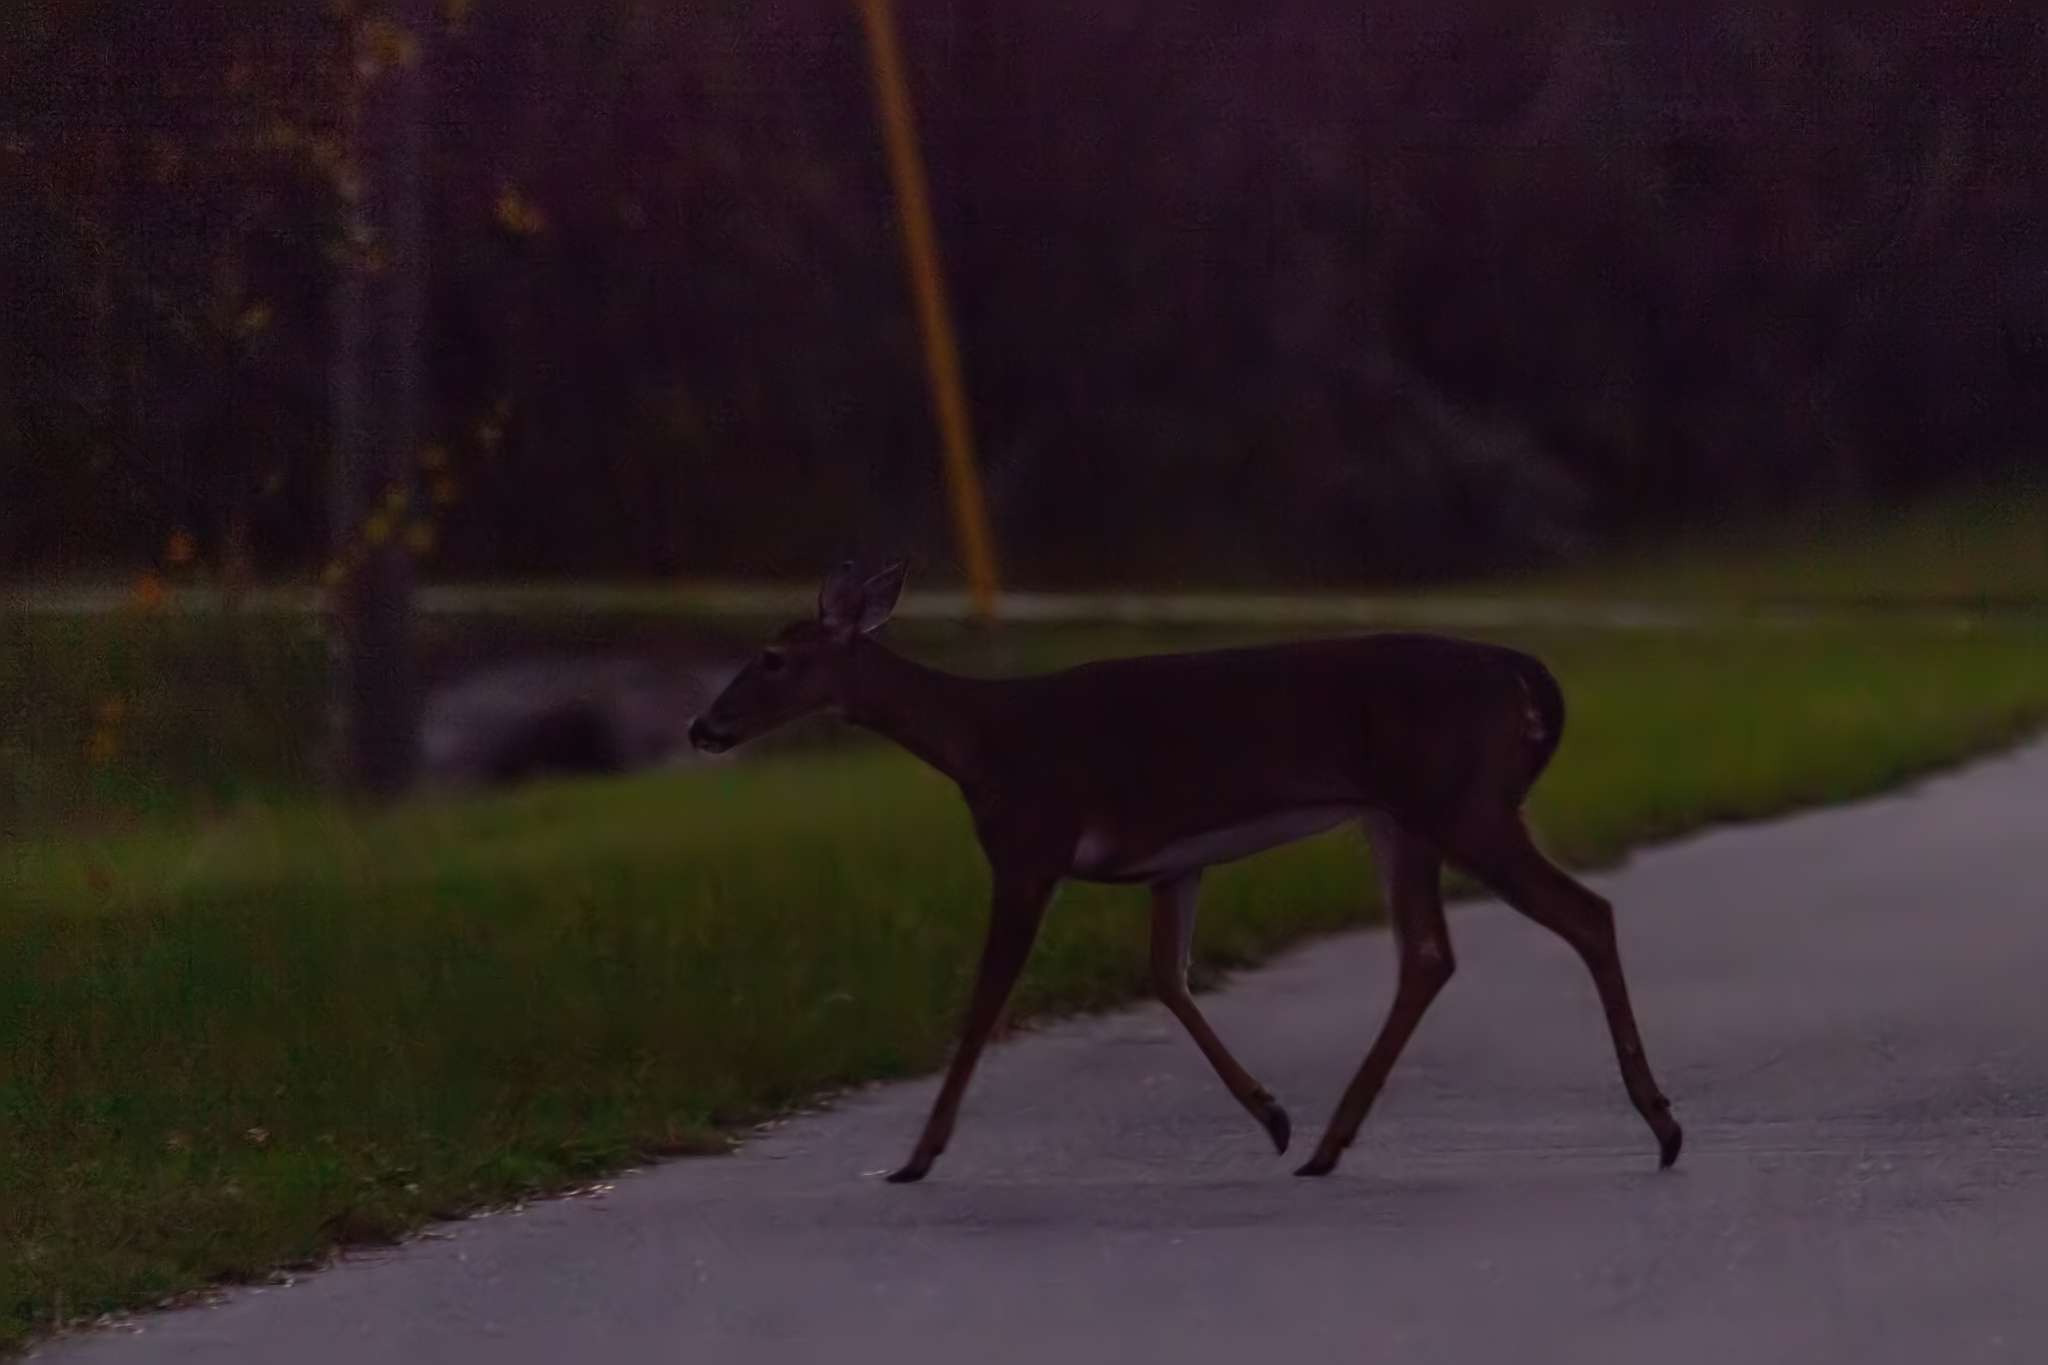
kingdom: Animalia
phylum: Chordata
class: Mammalia
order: Artiodactyla
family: Cervidae
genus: Odocoileus
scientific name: Odocoileus virginianus
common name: White-tailed deer
